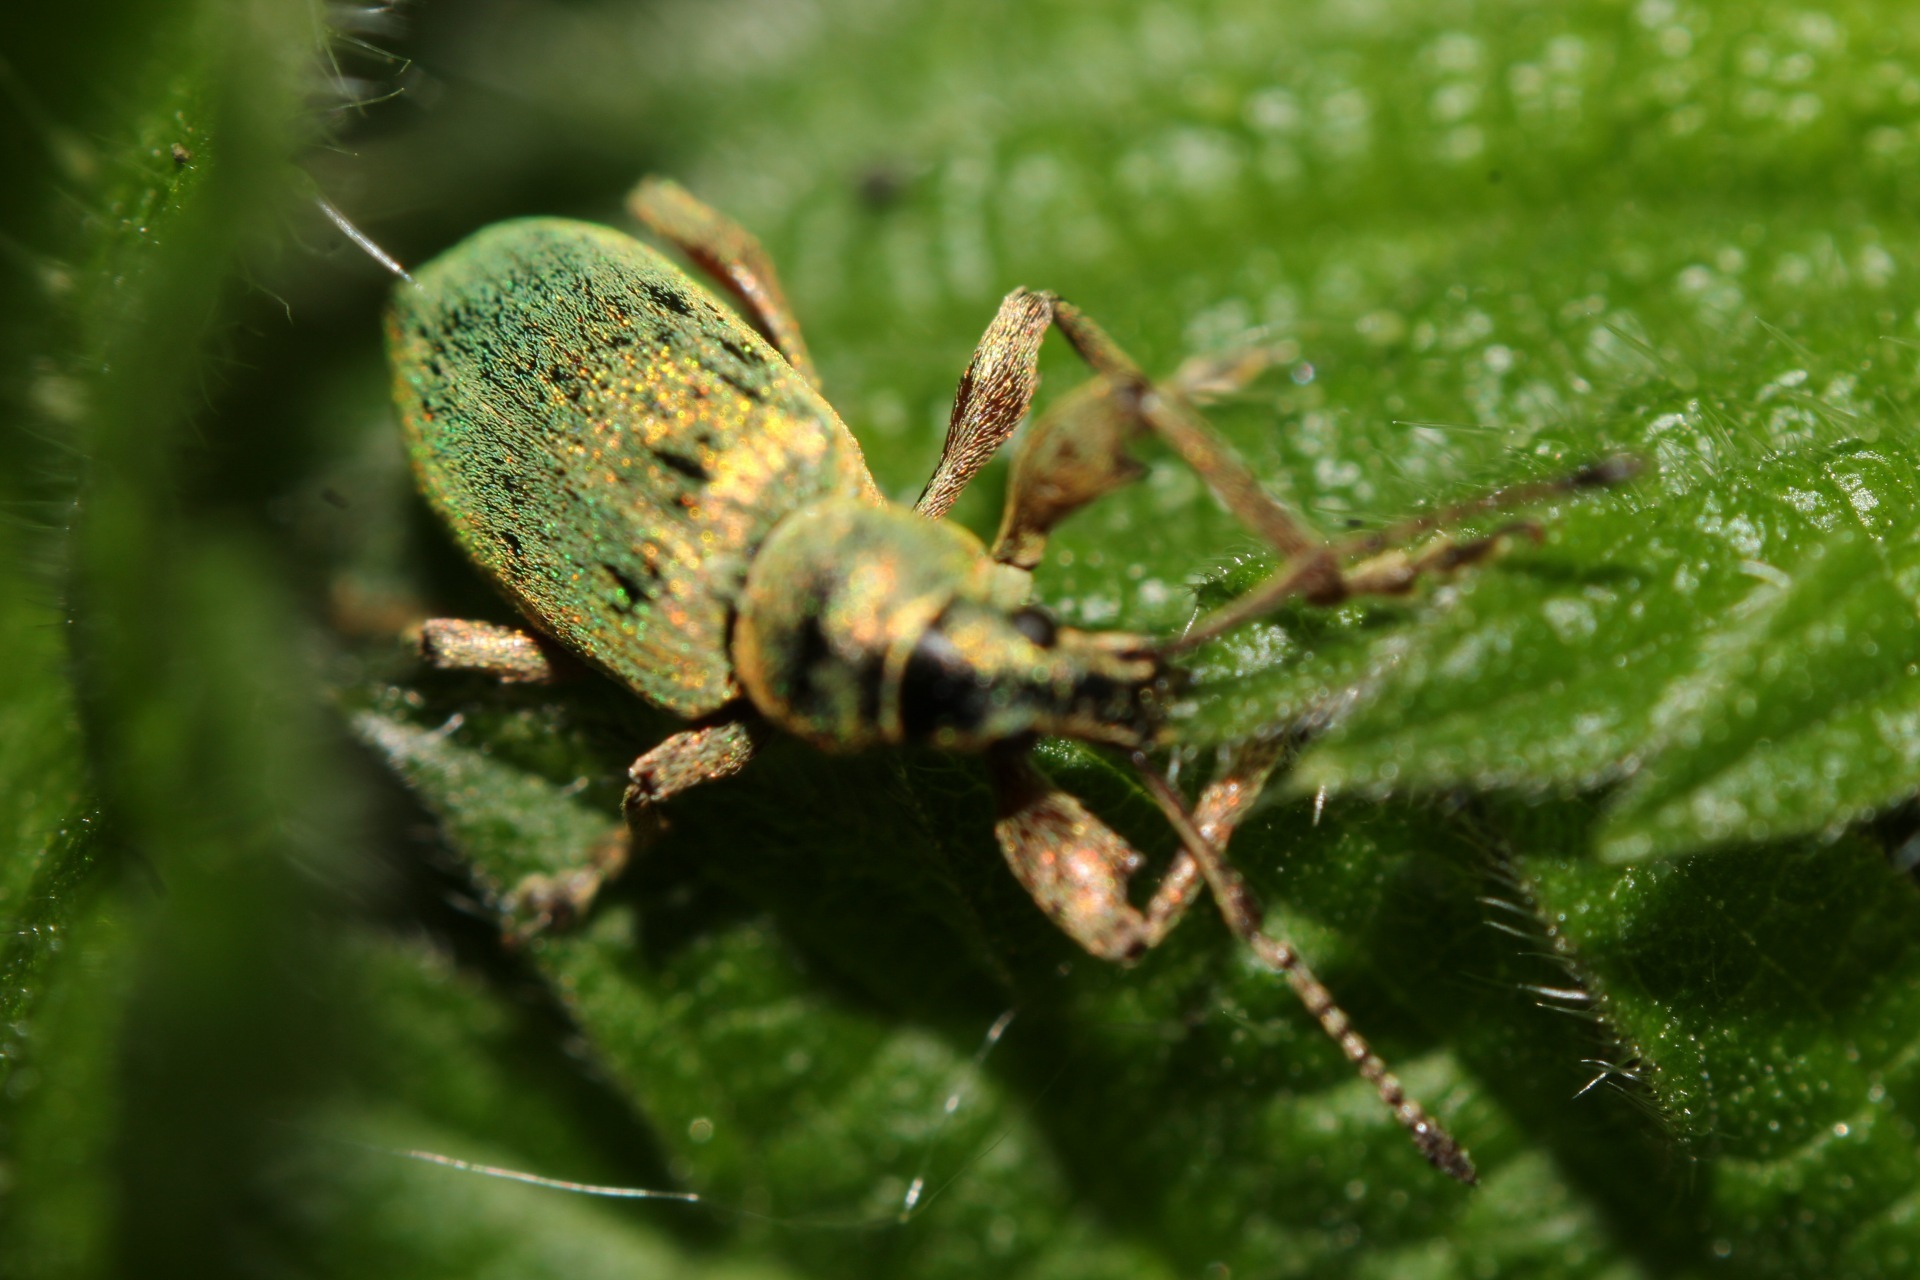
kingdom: Animalia
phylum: Arthropoda
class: Insecta
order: Coleoptera
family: Curculionidae
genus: Phyllobius
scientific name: Phyllobius pomaceus
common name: Green nettle weevil
